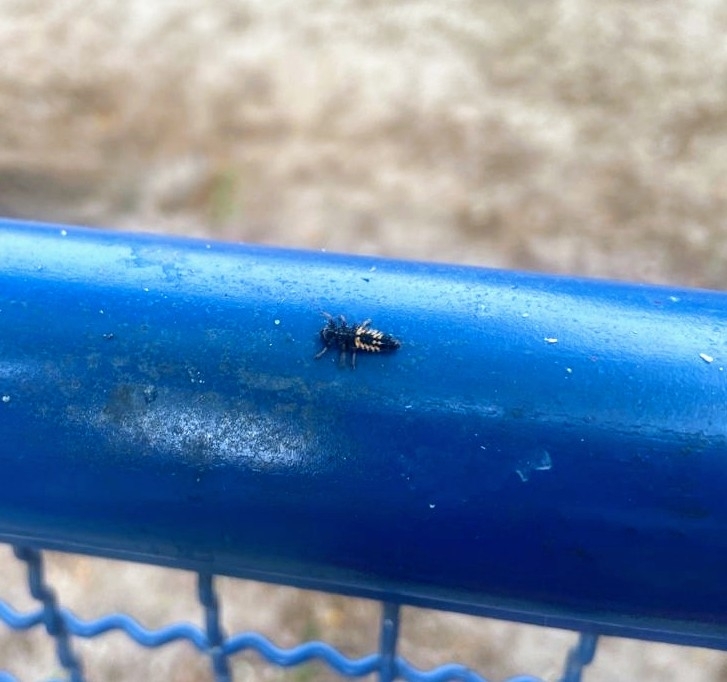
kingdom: Animalia
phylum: Arthropoda
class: Insecta
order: Coleoptera
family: Coccinellidae
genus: Harmonia
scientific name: Harmonia axyridis
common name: Harlequin ladybird
